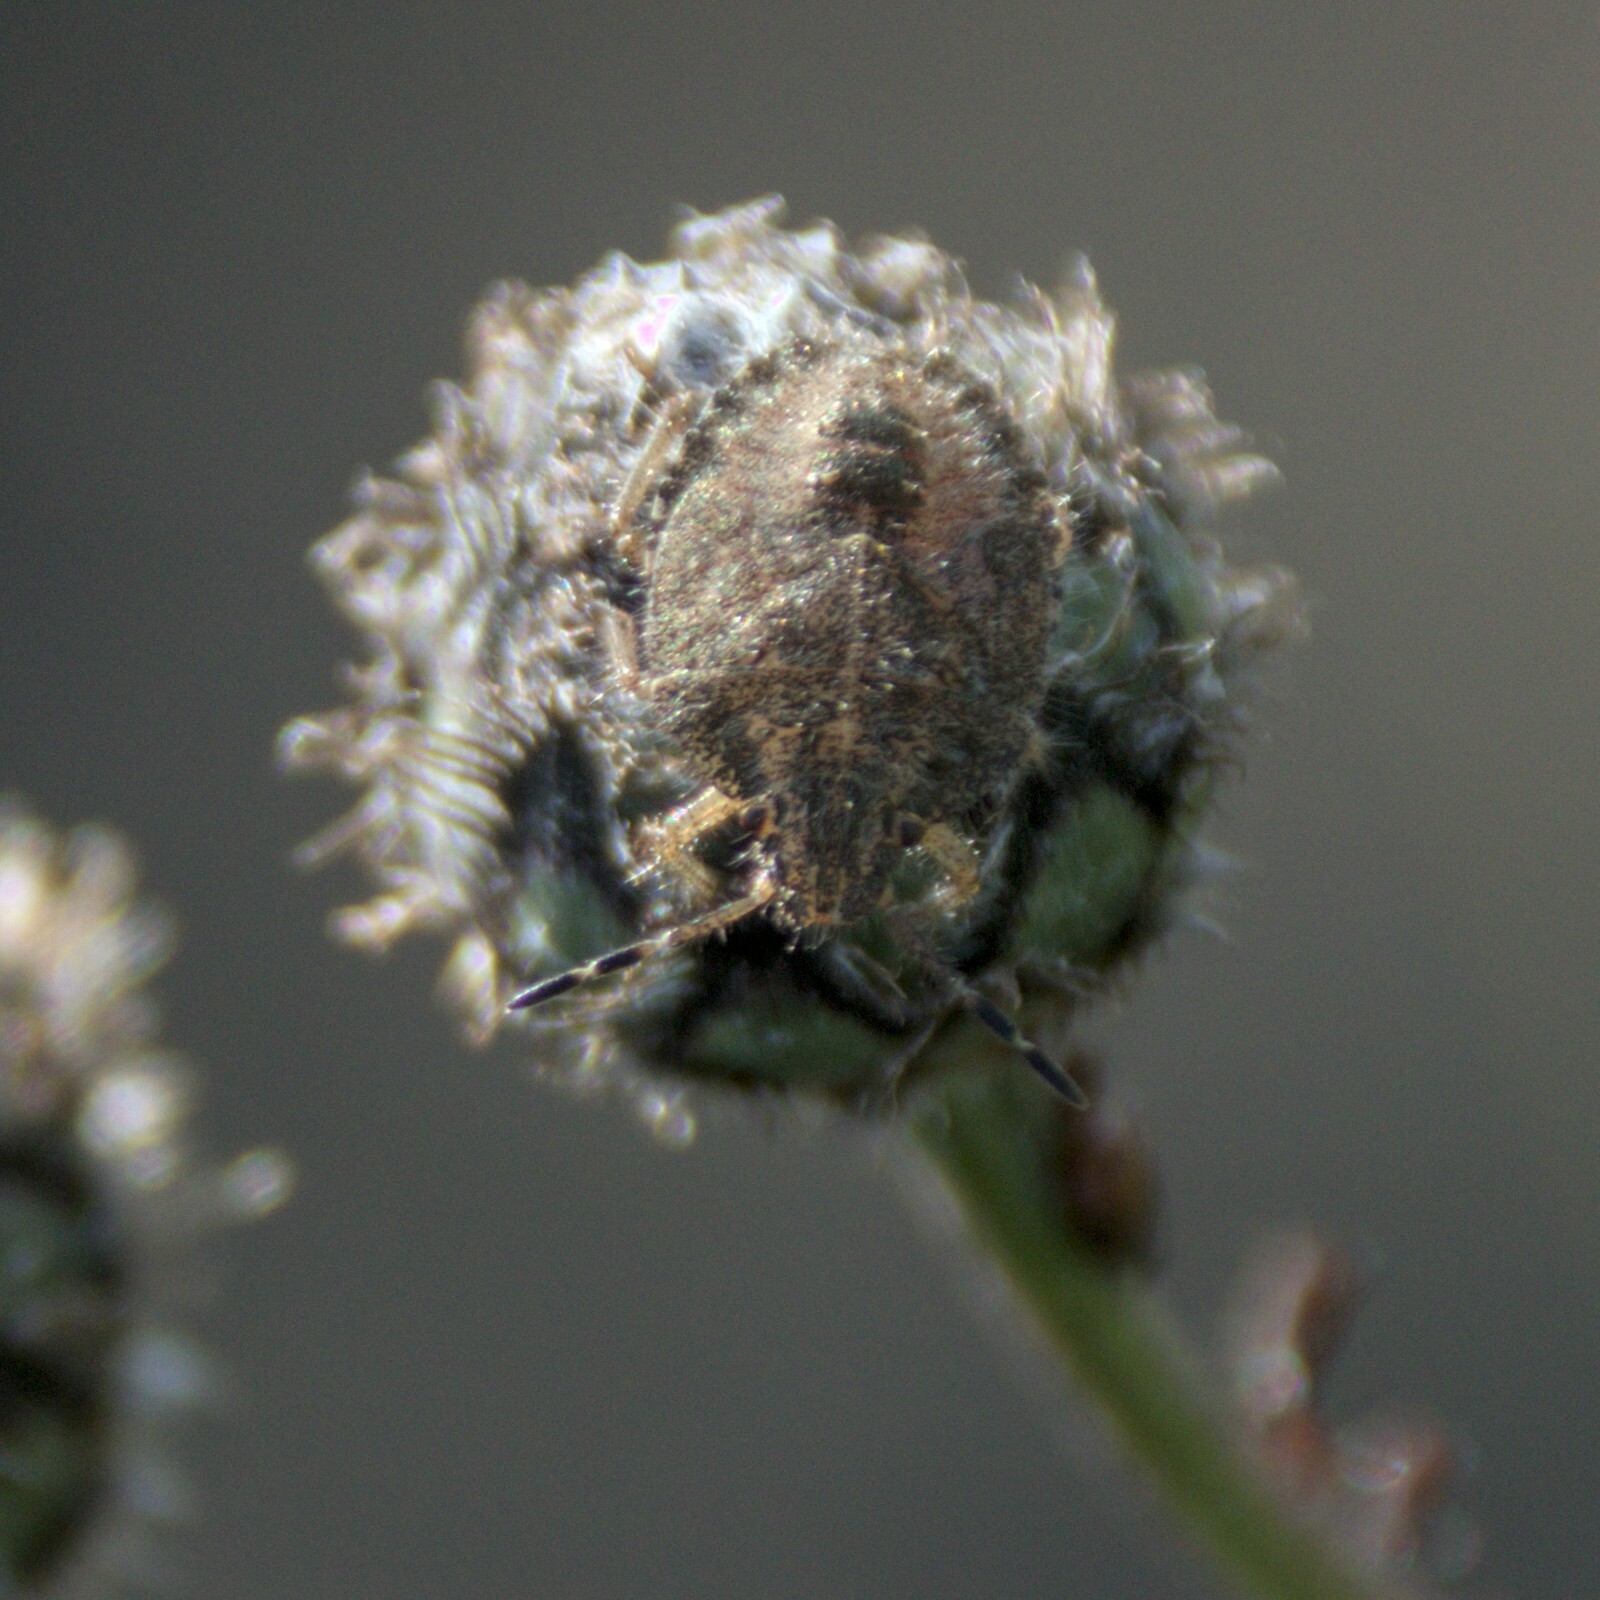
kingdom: Animalia
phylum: Arthropoda
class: Insecta
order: Hemiptera
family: Pentatomidae
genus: Dolycoris
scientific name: Dolycoris baccarum
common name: Sloe bug
